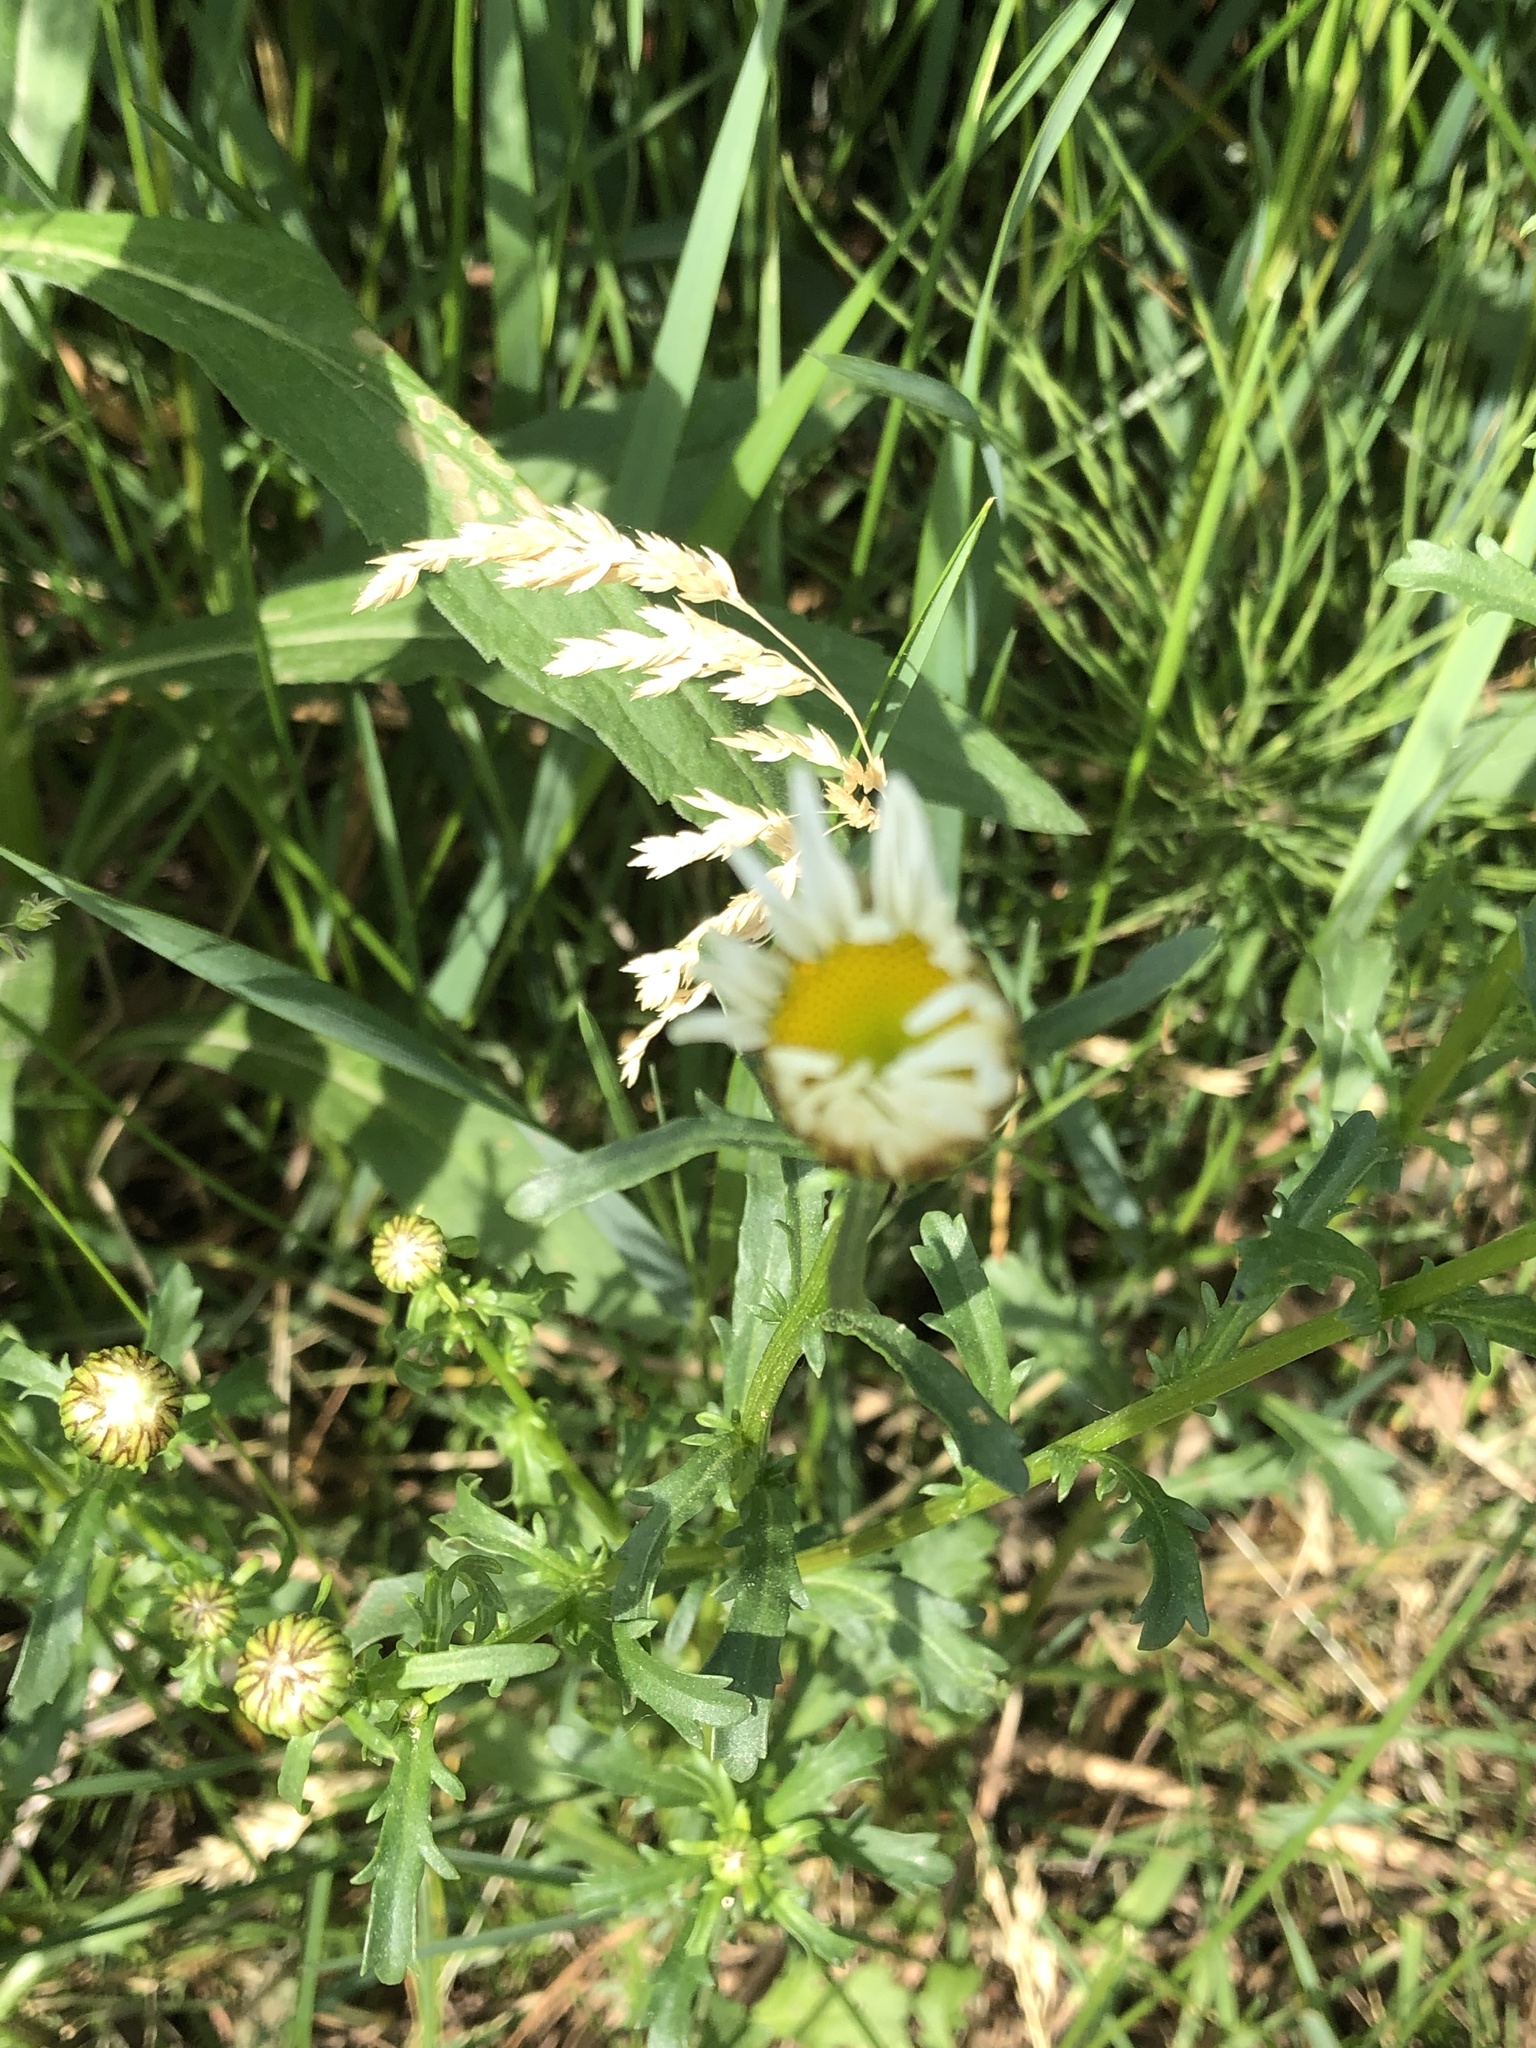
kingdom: Plantae
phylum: Tracheophyta
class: Magnoliopsida
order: Asterales
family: Asteraceae
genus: Leucanthemum
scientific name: Leucanthemum vulgare
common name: Oxeye daisy
